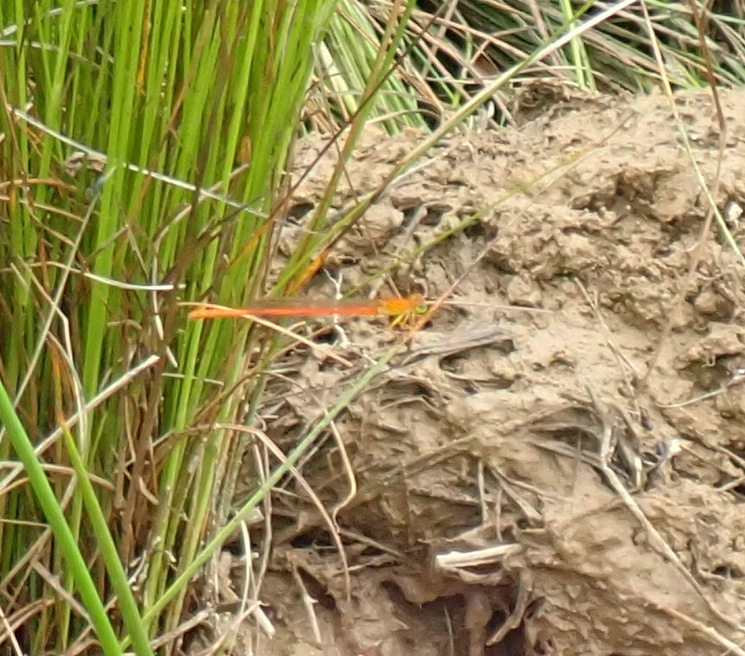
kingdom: Animalia
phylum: Arthropoda
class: Insecta
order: Odonata
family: Coenagrionidae
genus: Ceriagrion
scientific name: Ceriagrion glabrum
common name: Common pond damsel
